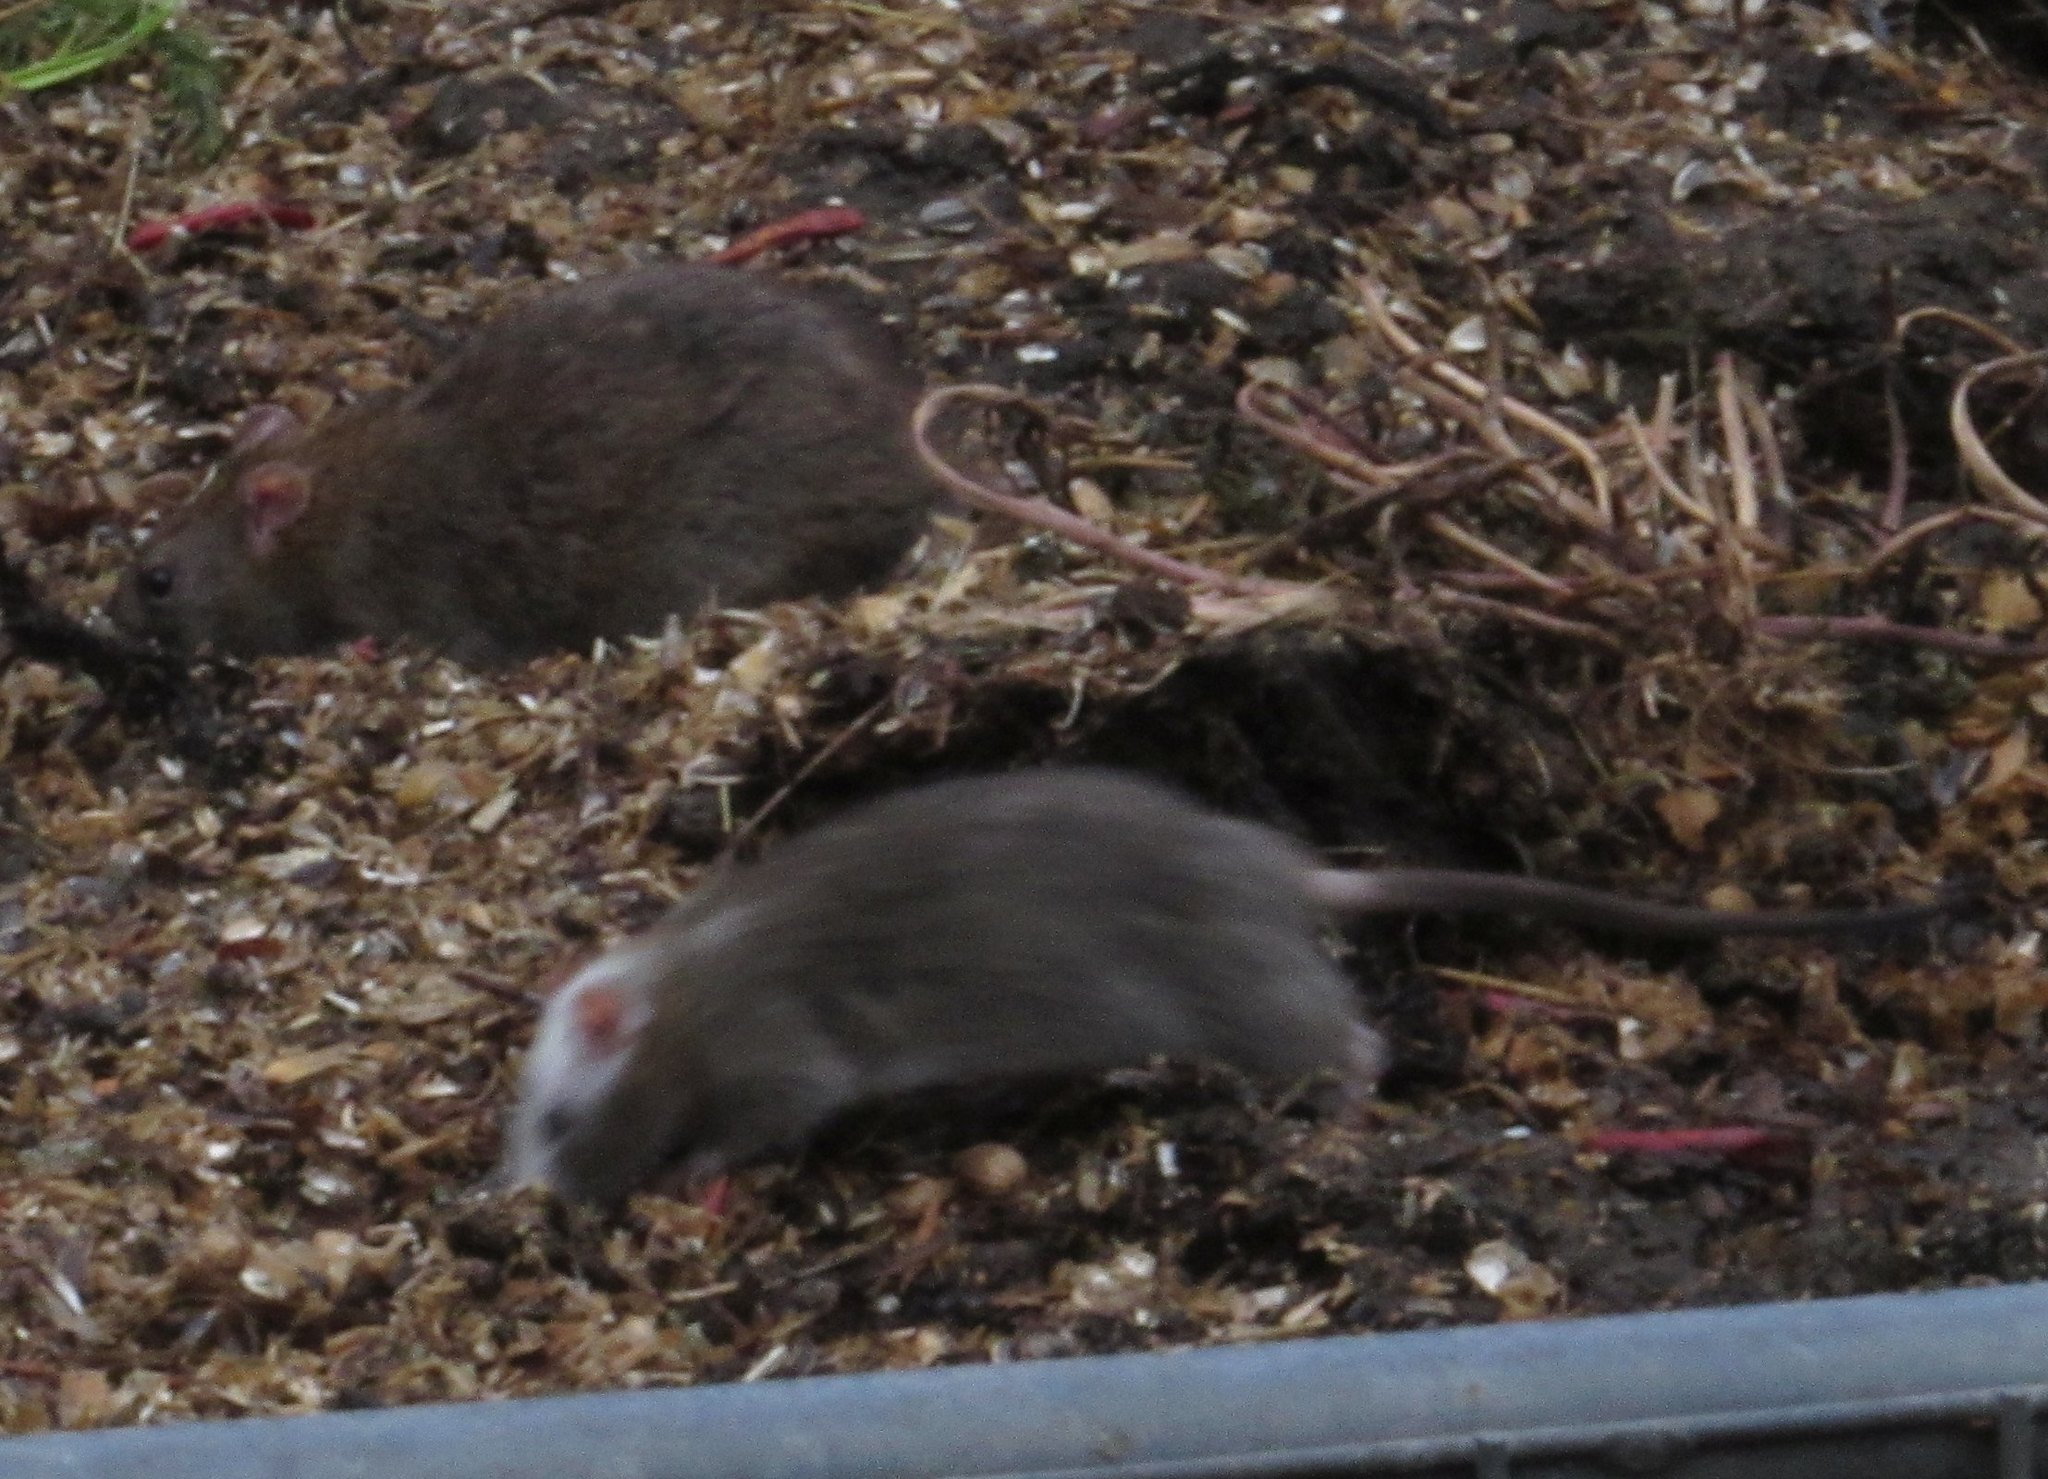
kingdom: Animalia
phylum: Chordata
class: Mammalia
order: Rodentia
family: Muridae
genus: Rattus
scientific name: Rattus norvegicus
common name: Brown rat
